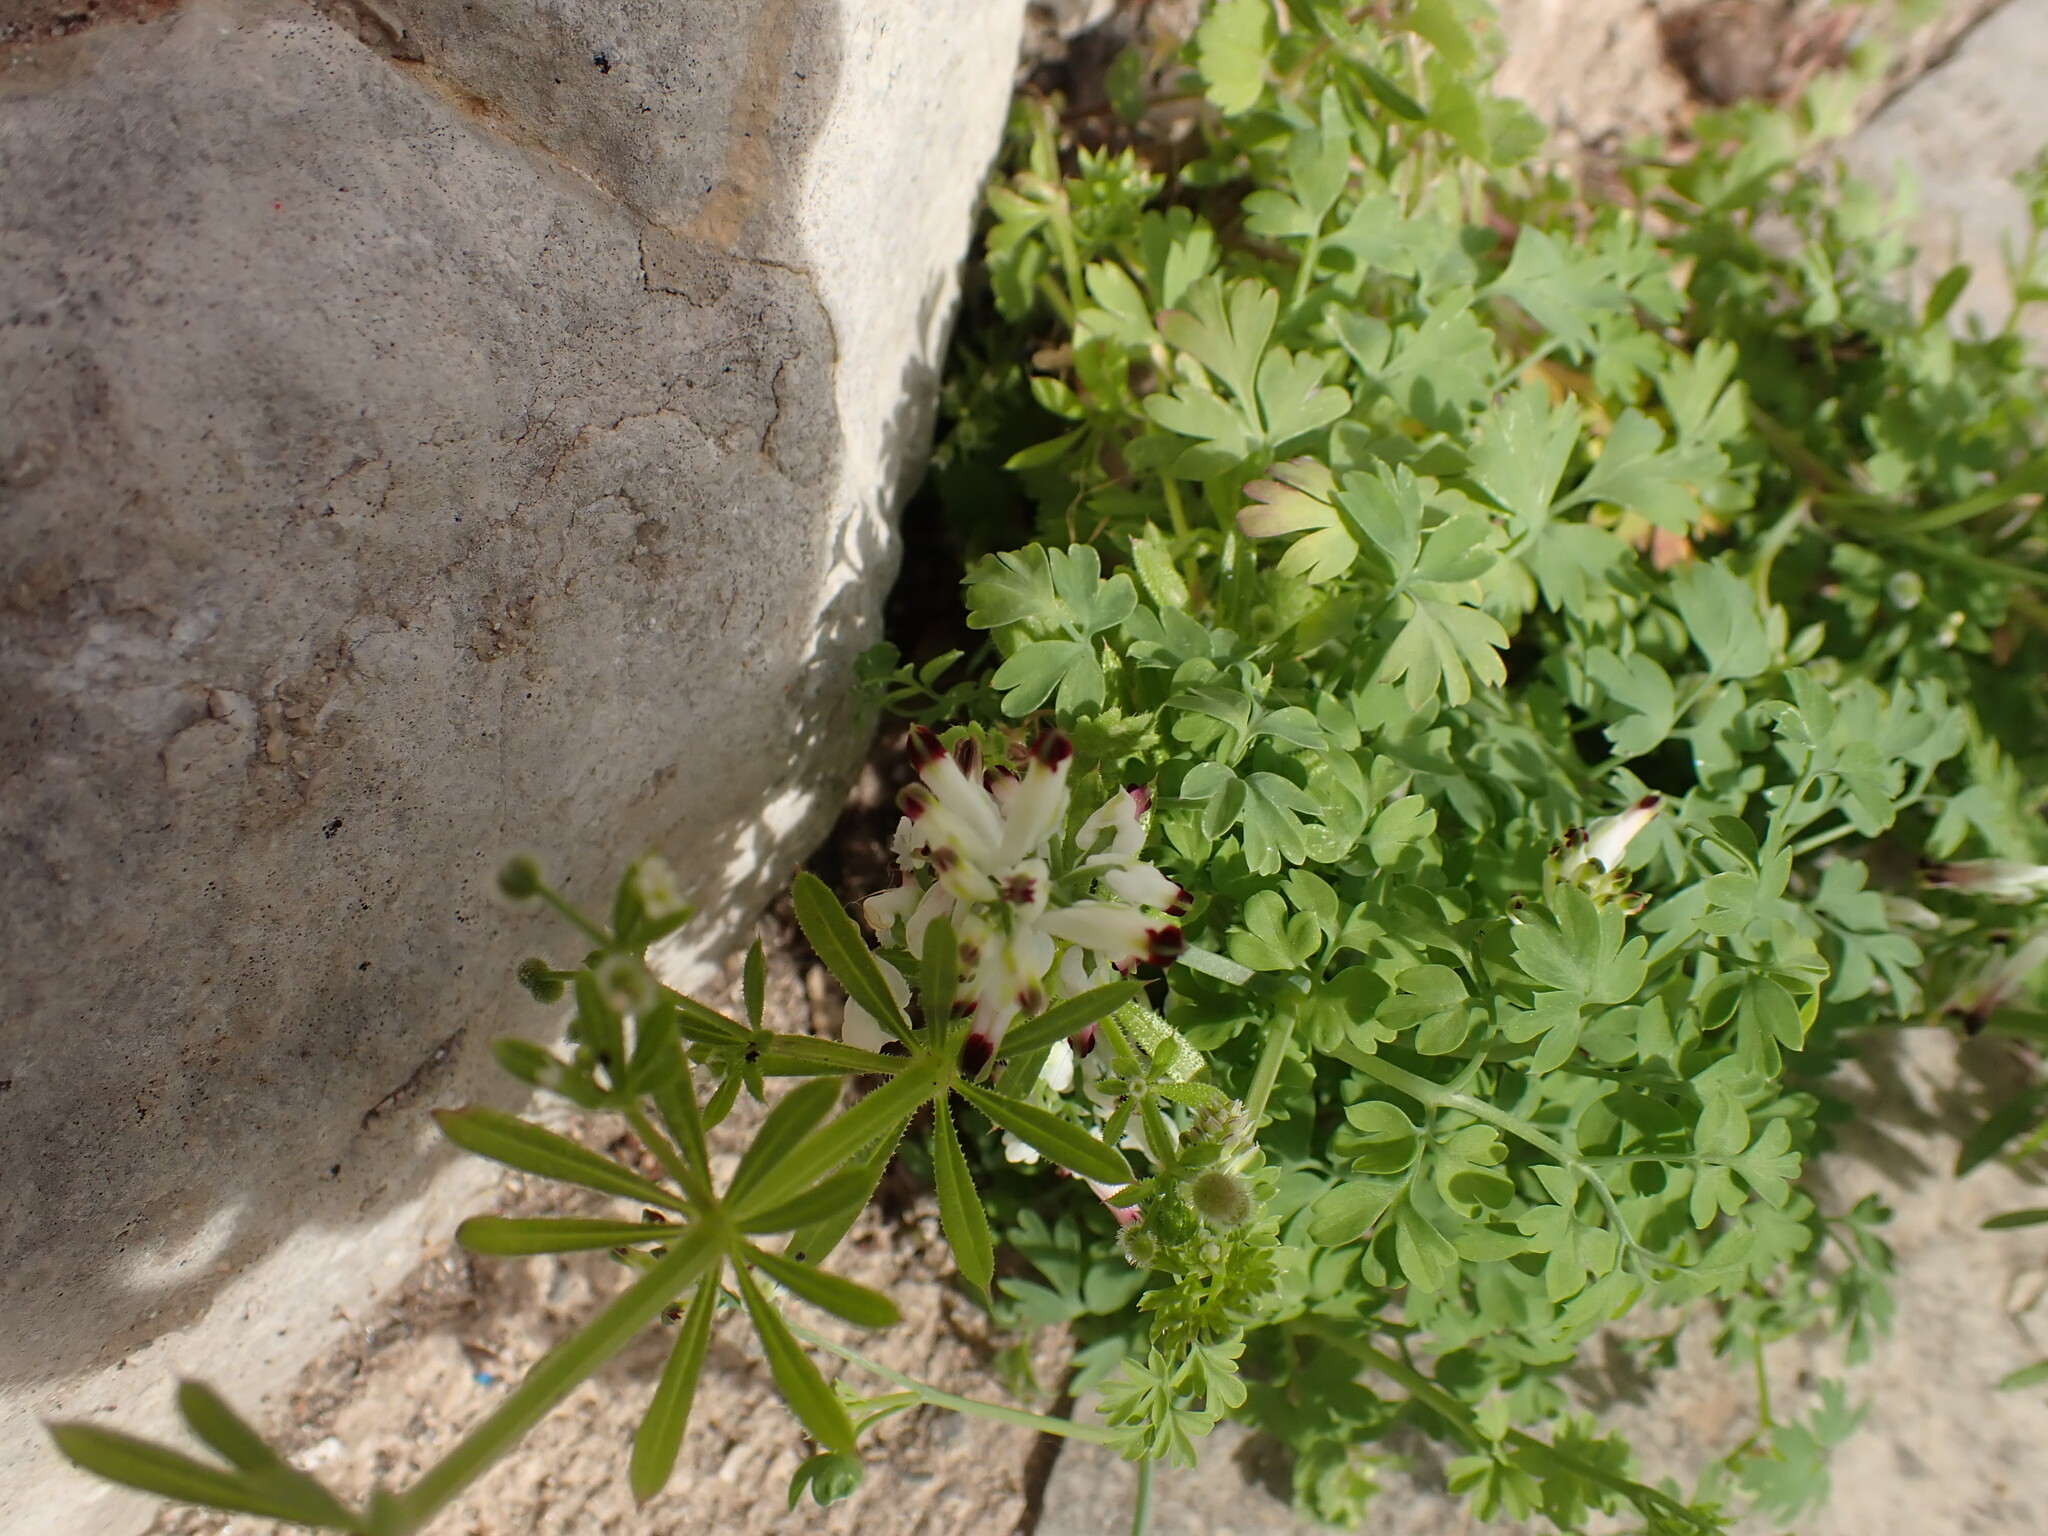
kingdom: Plantae
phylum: Tracheophyta
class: Magnoliopsida
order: Ranunculales
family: Papaveraceae
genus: Fumaria
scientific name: Fumaria capreolata
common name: White ramping-fumitory
